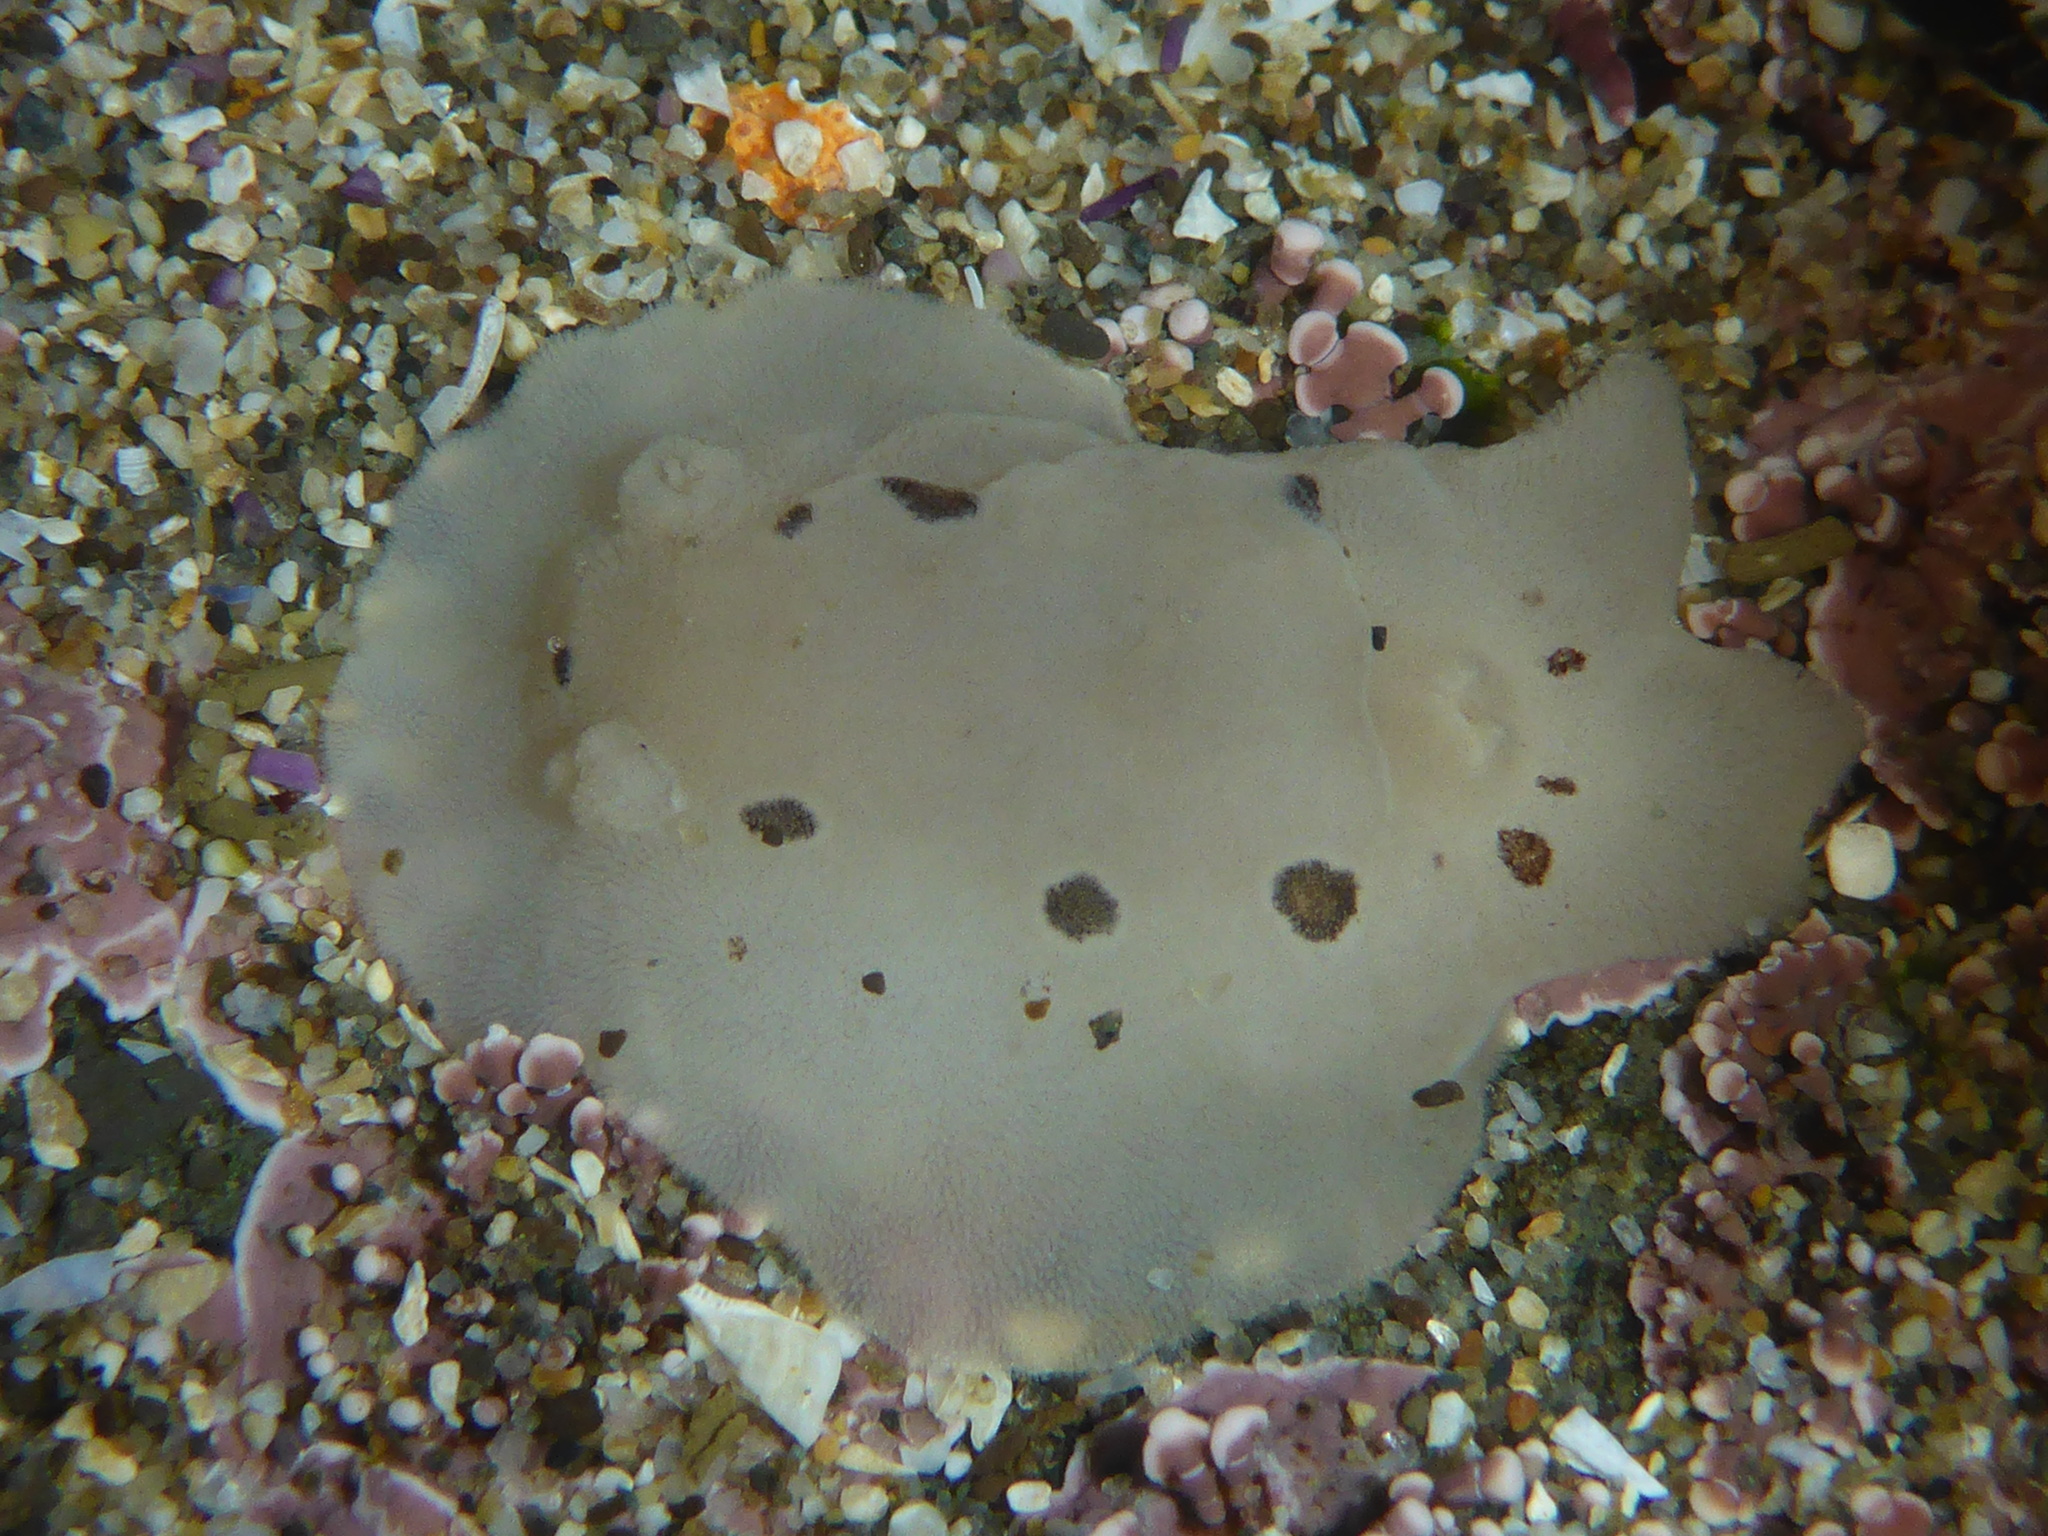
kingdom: Animalia
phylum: Mollusca
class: Gastropoda
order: Nudibranchia
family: Discodorididae
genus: Diaulula
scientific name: Diaulula sandiegensis
